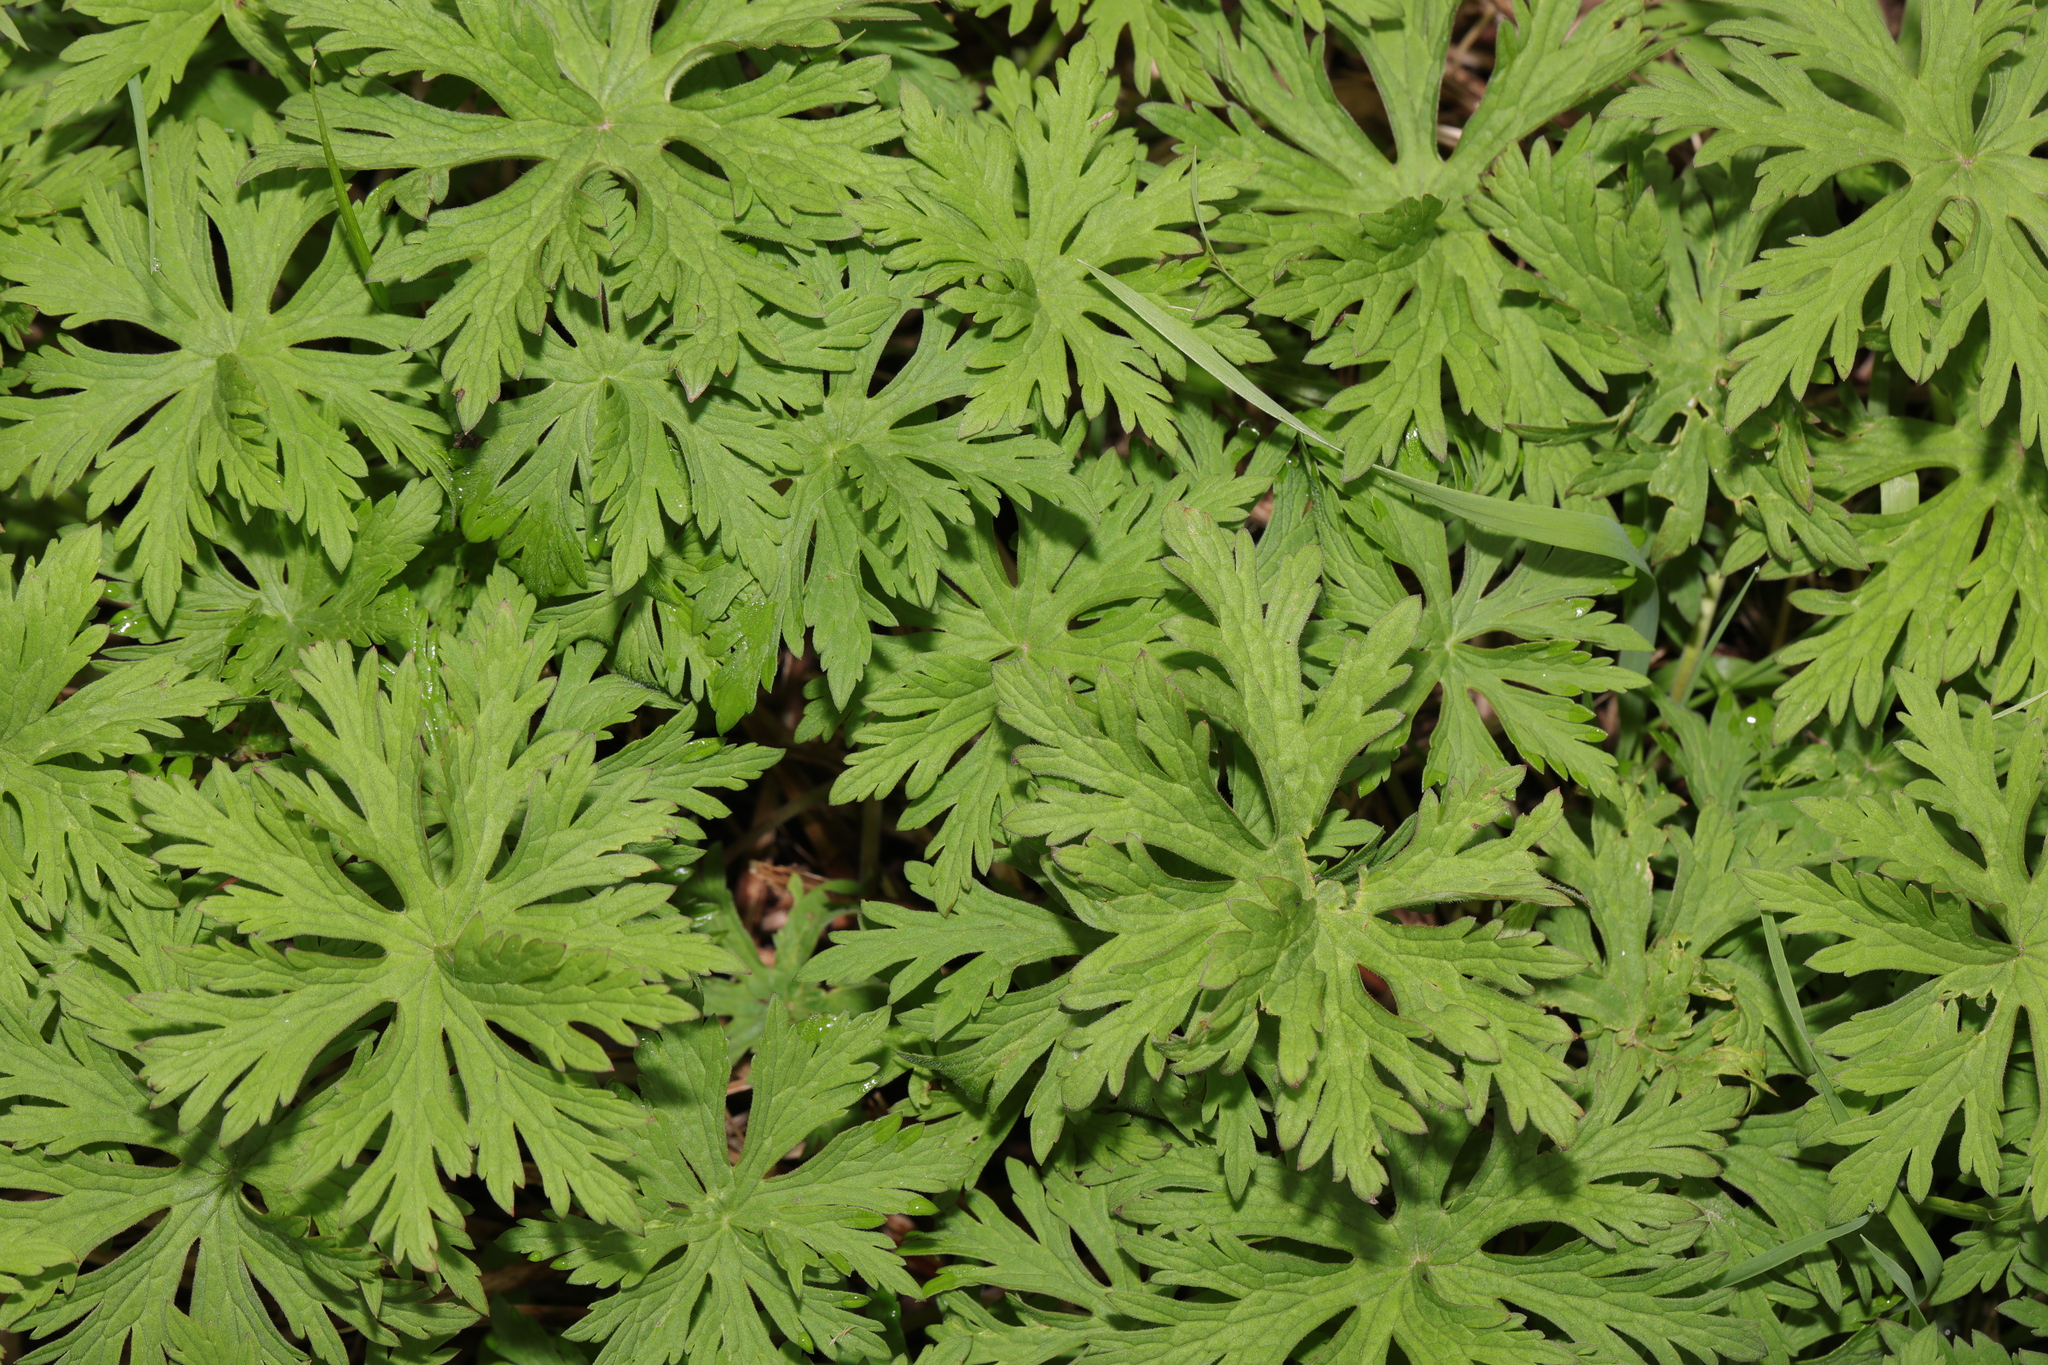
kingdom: Plantae
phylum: Tracheophyta
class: Magnoliopsida
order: Geraniales
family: Geraniaceae
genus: Geranium
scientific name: Geranium pratense
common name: Meadow crane's-bill
